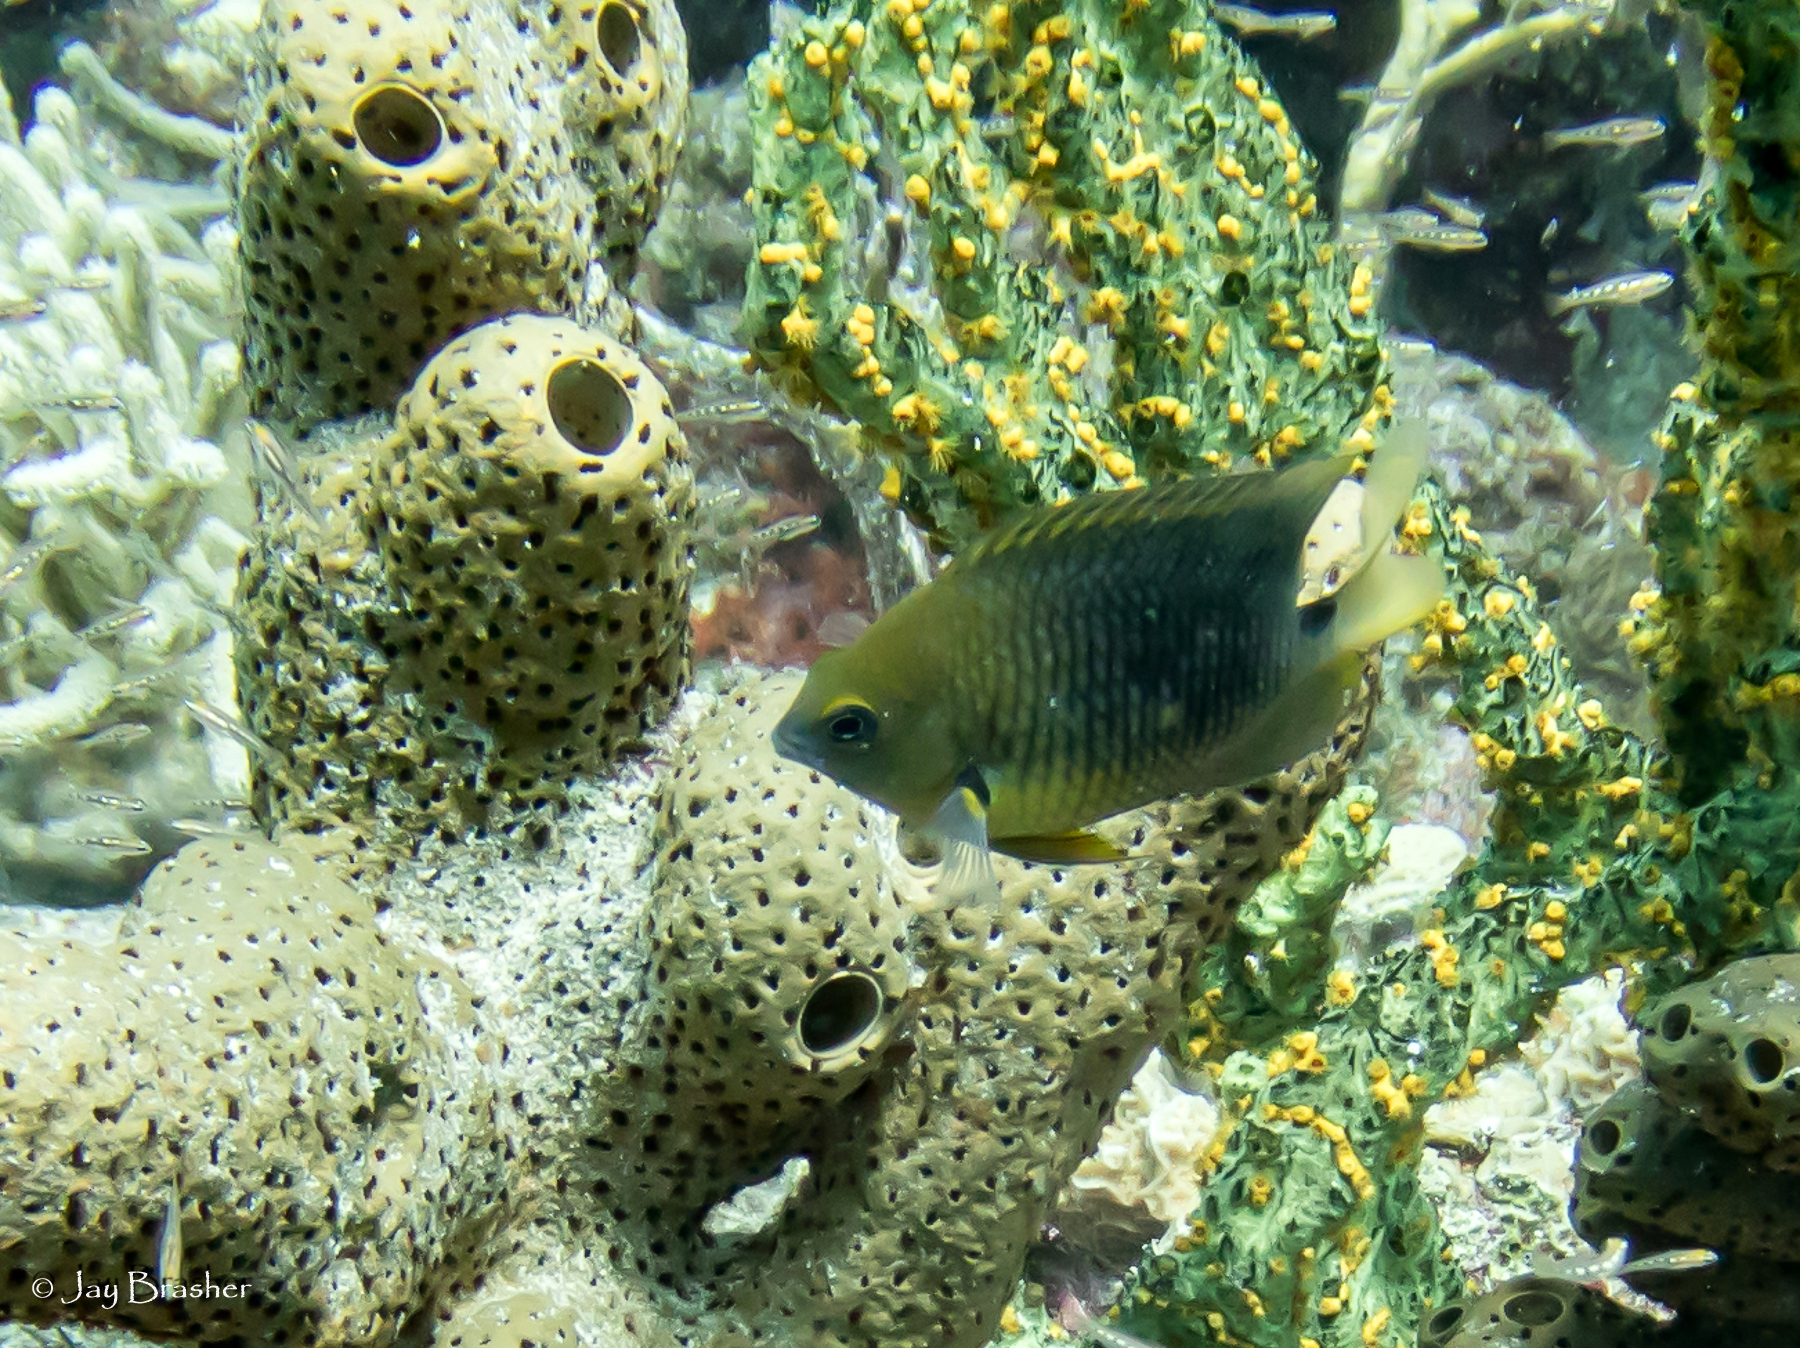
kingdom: Animalia
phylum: Chordata
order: Perciformes
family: Pomacentridae
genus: Stegastes
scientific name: Stegastes planifrons
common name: Threespot damselfish
